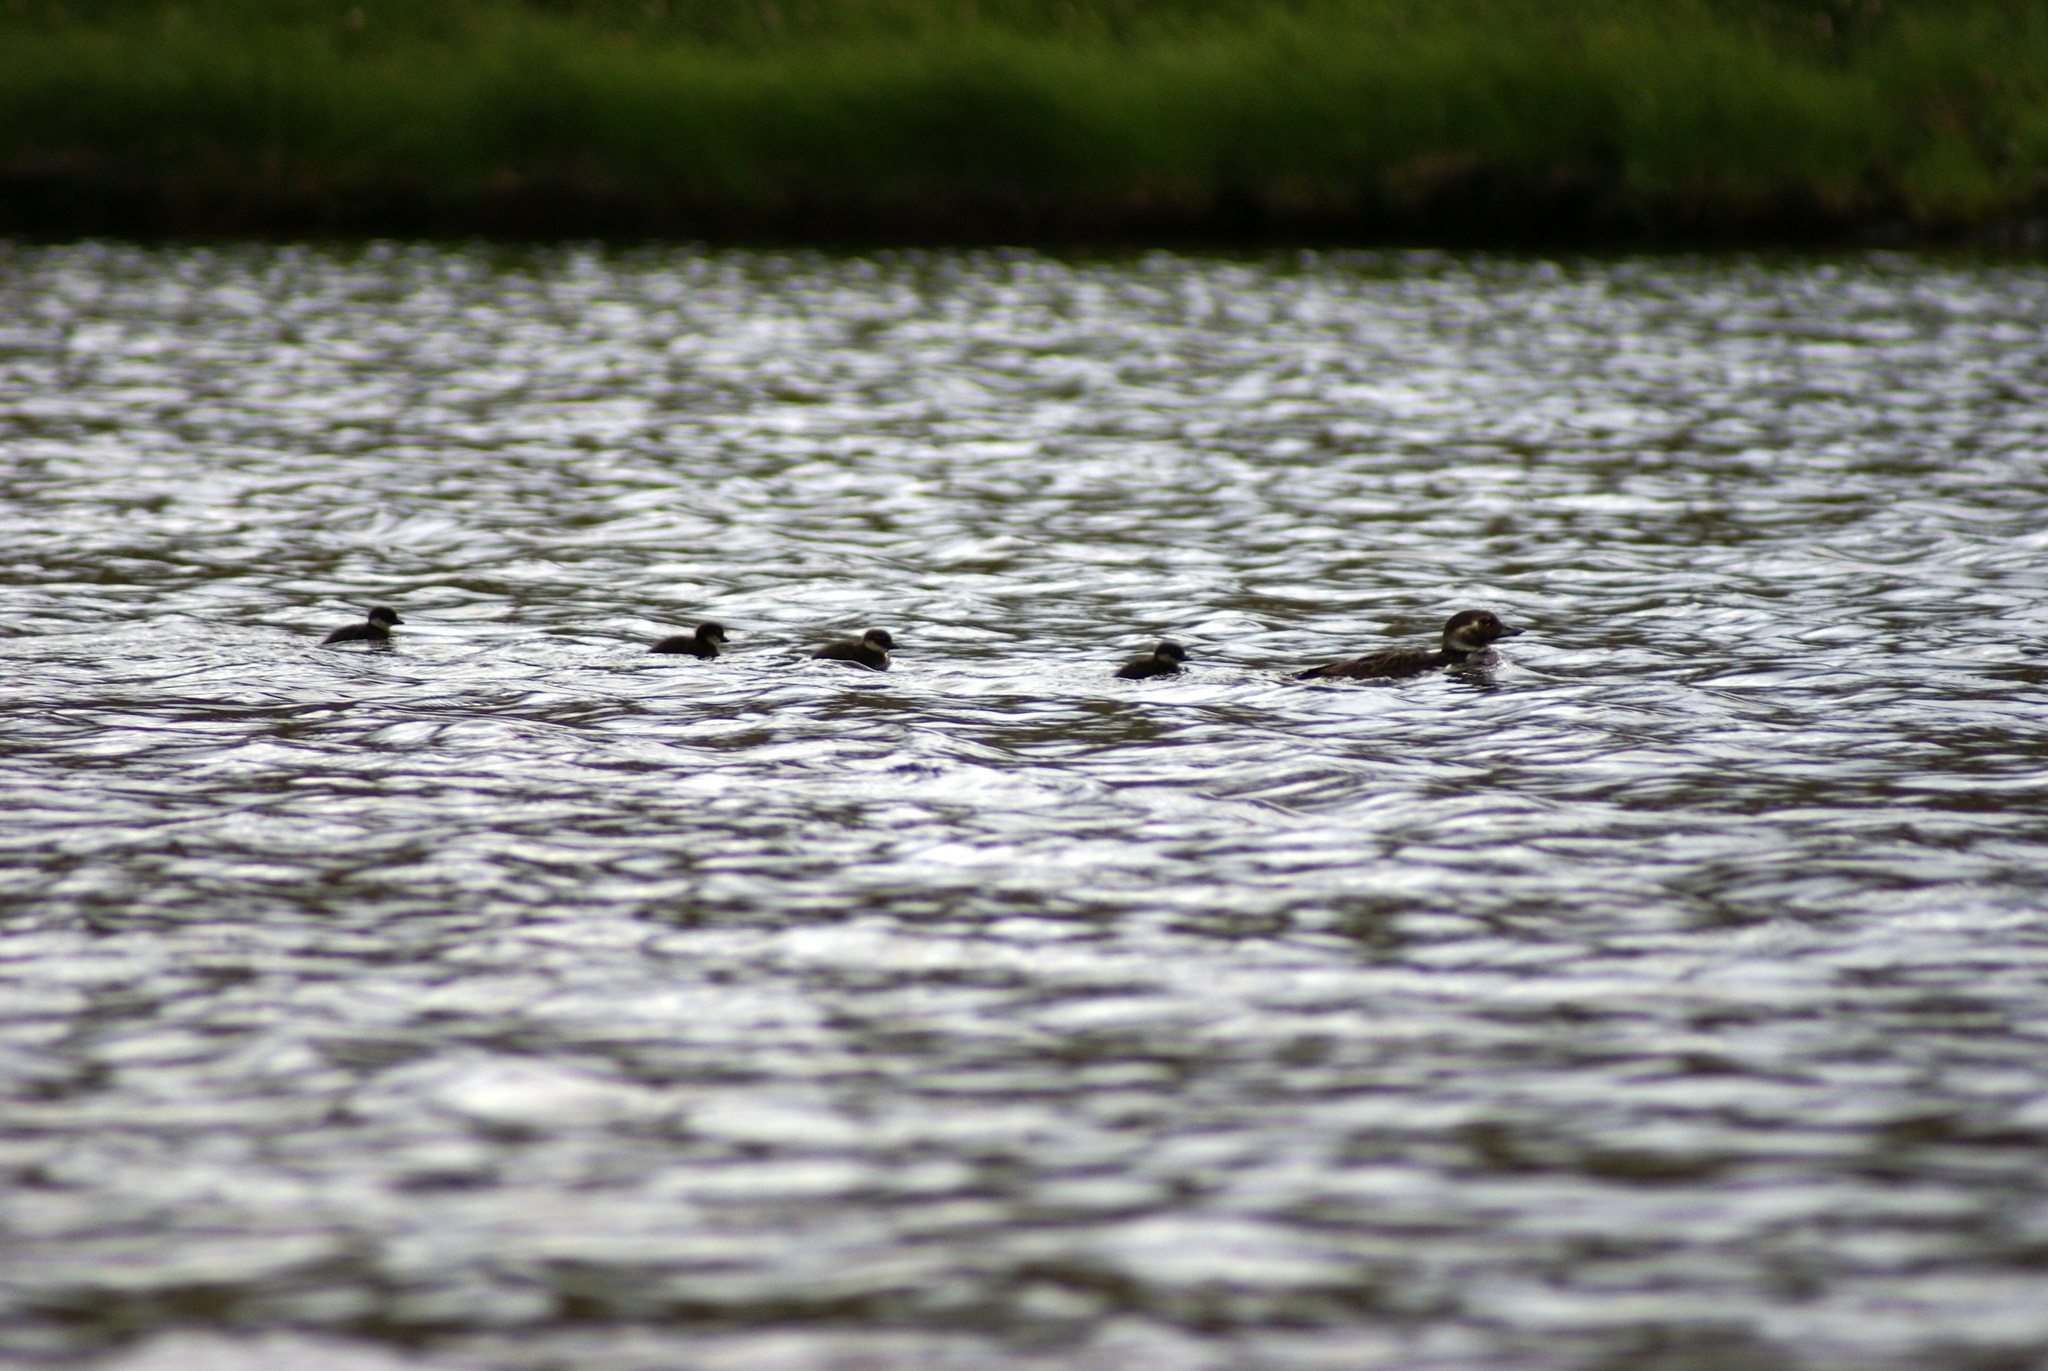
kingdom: Animalia
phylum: Chordata
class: Aves
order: Anseriformes
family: Anatidae
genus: Clangula
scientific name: Clangula hyemalis
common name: Long-tailed duck
